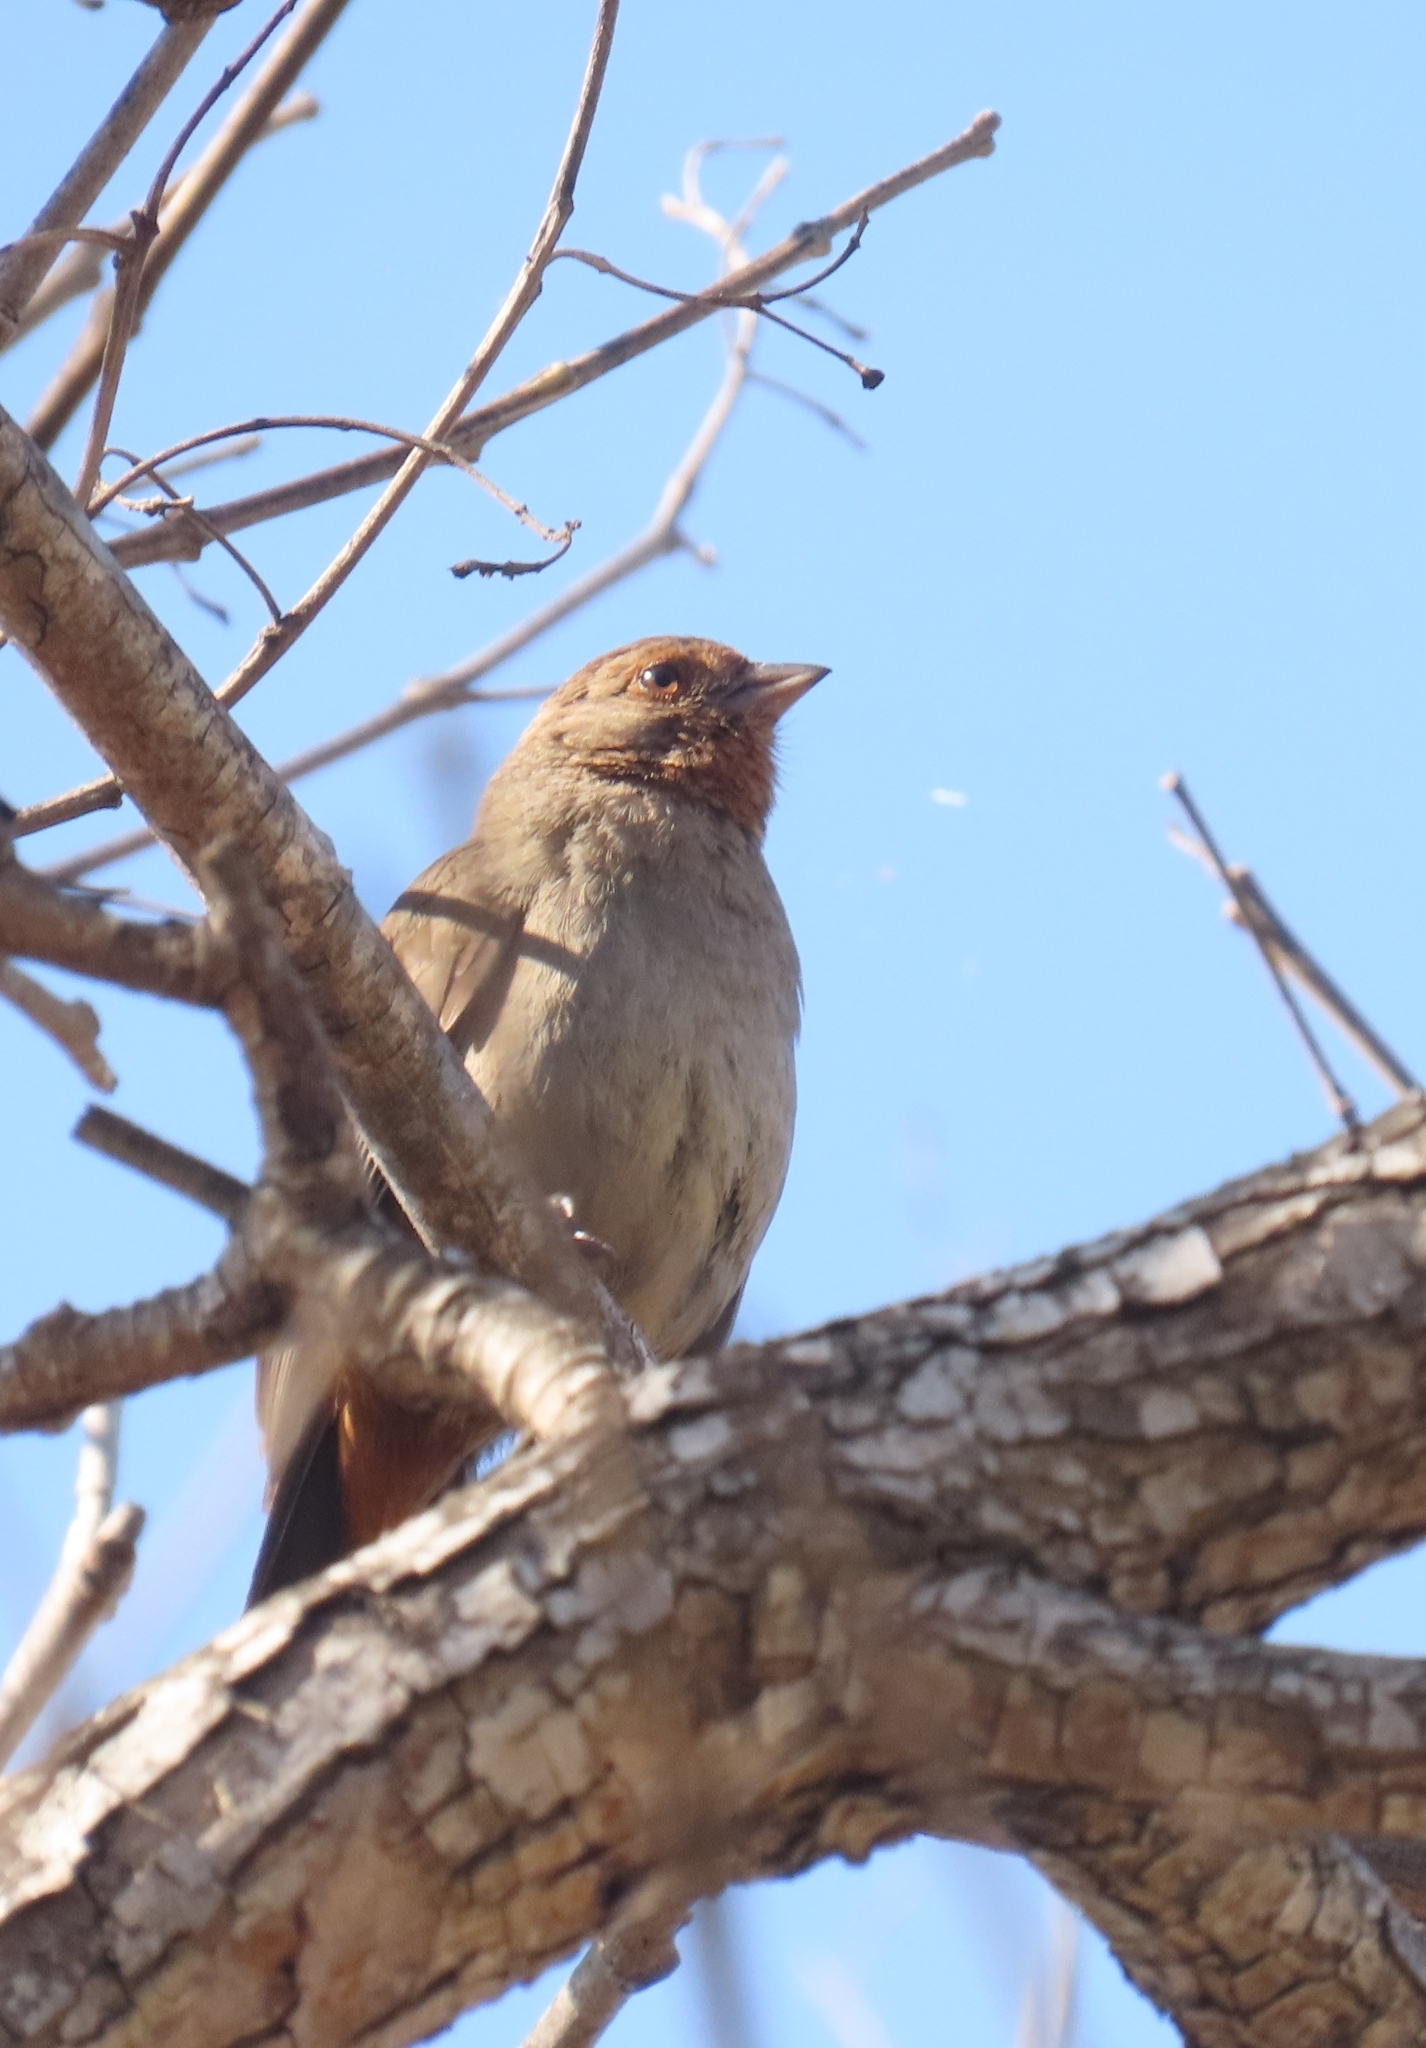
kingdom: Animalia
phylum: Chordata
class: Aves
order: Passeriformes
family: Passerellidae
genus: Melozone
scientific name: Melozone crissalis
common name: California towhee
